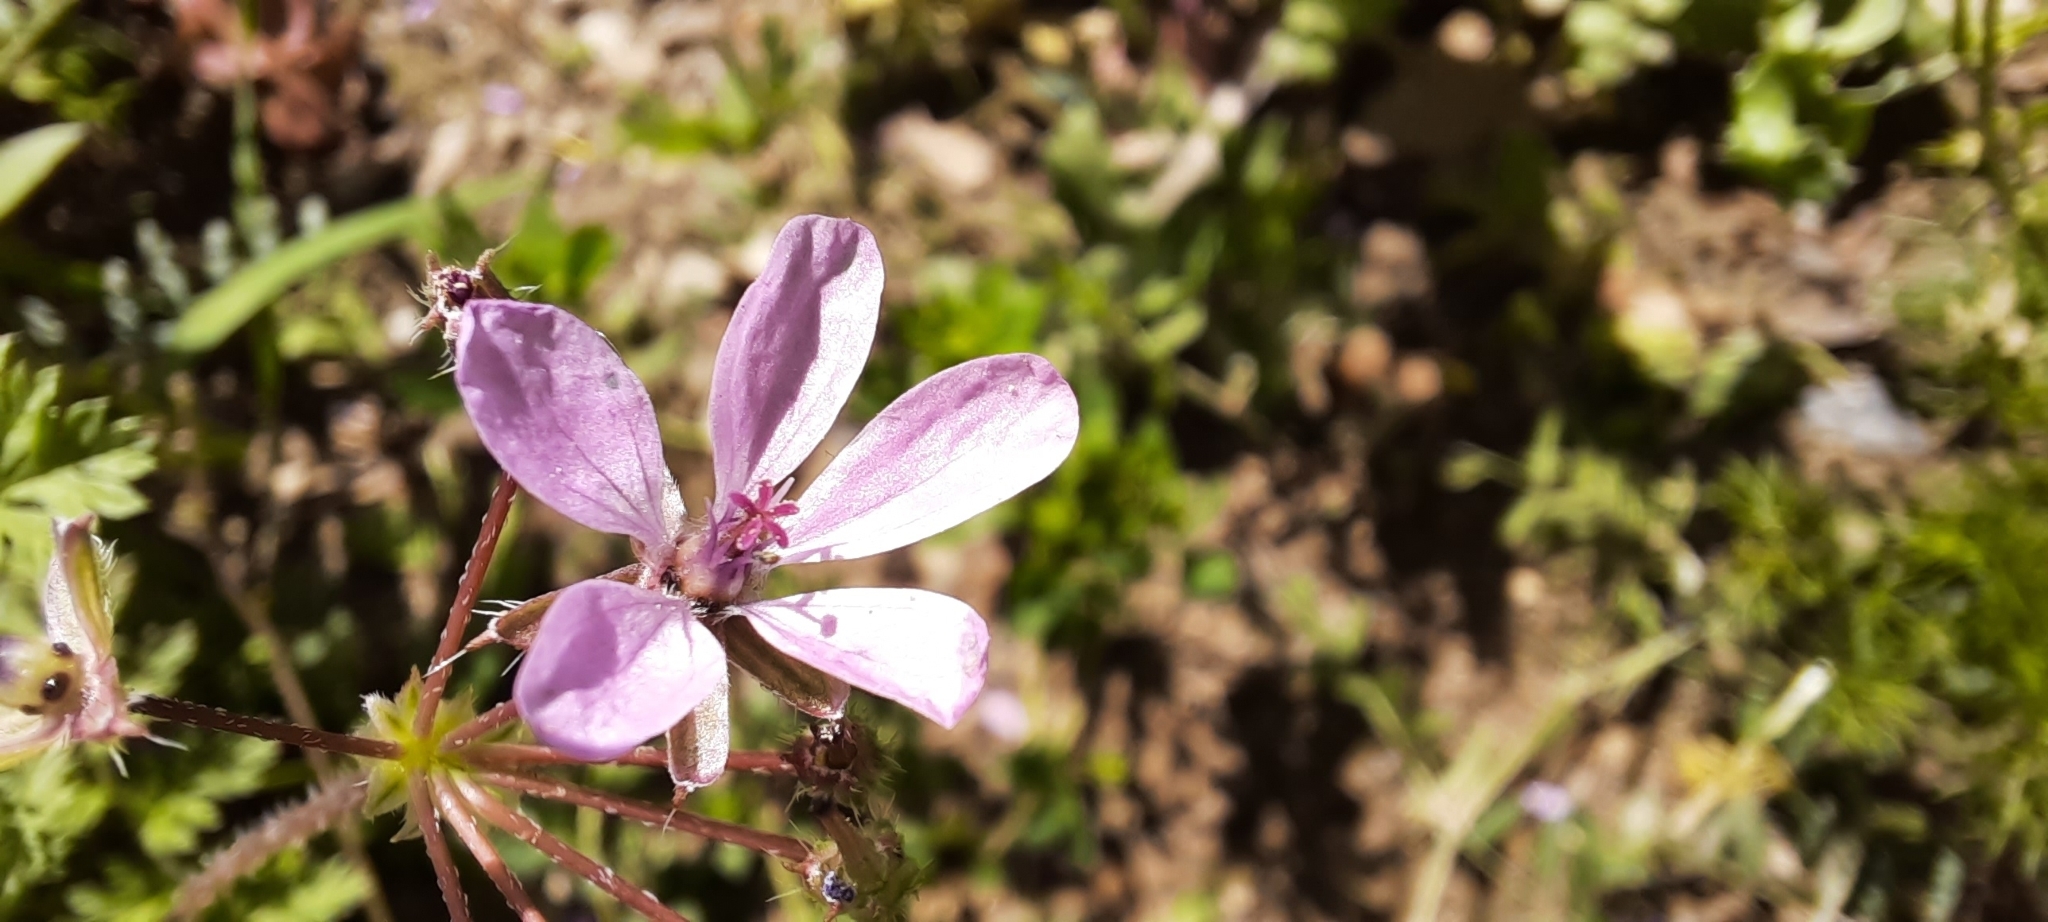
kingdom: Plantae
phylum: Tracheophyta
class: Magnoliopsida
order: Geraniales
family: Geraniaceae
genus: Erodium
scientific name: Erodium cicutarium
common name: Common stork's-bill
